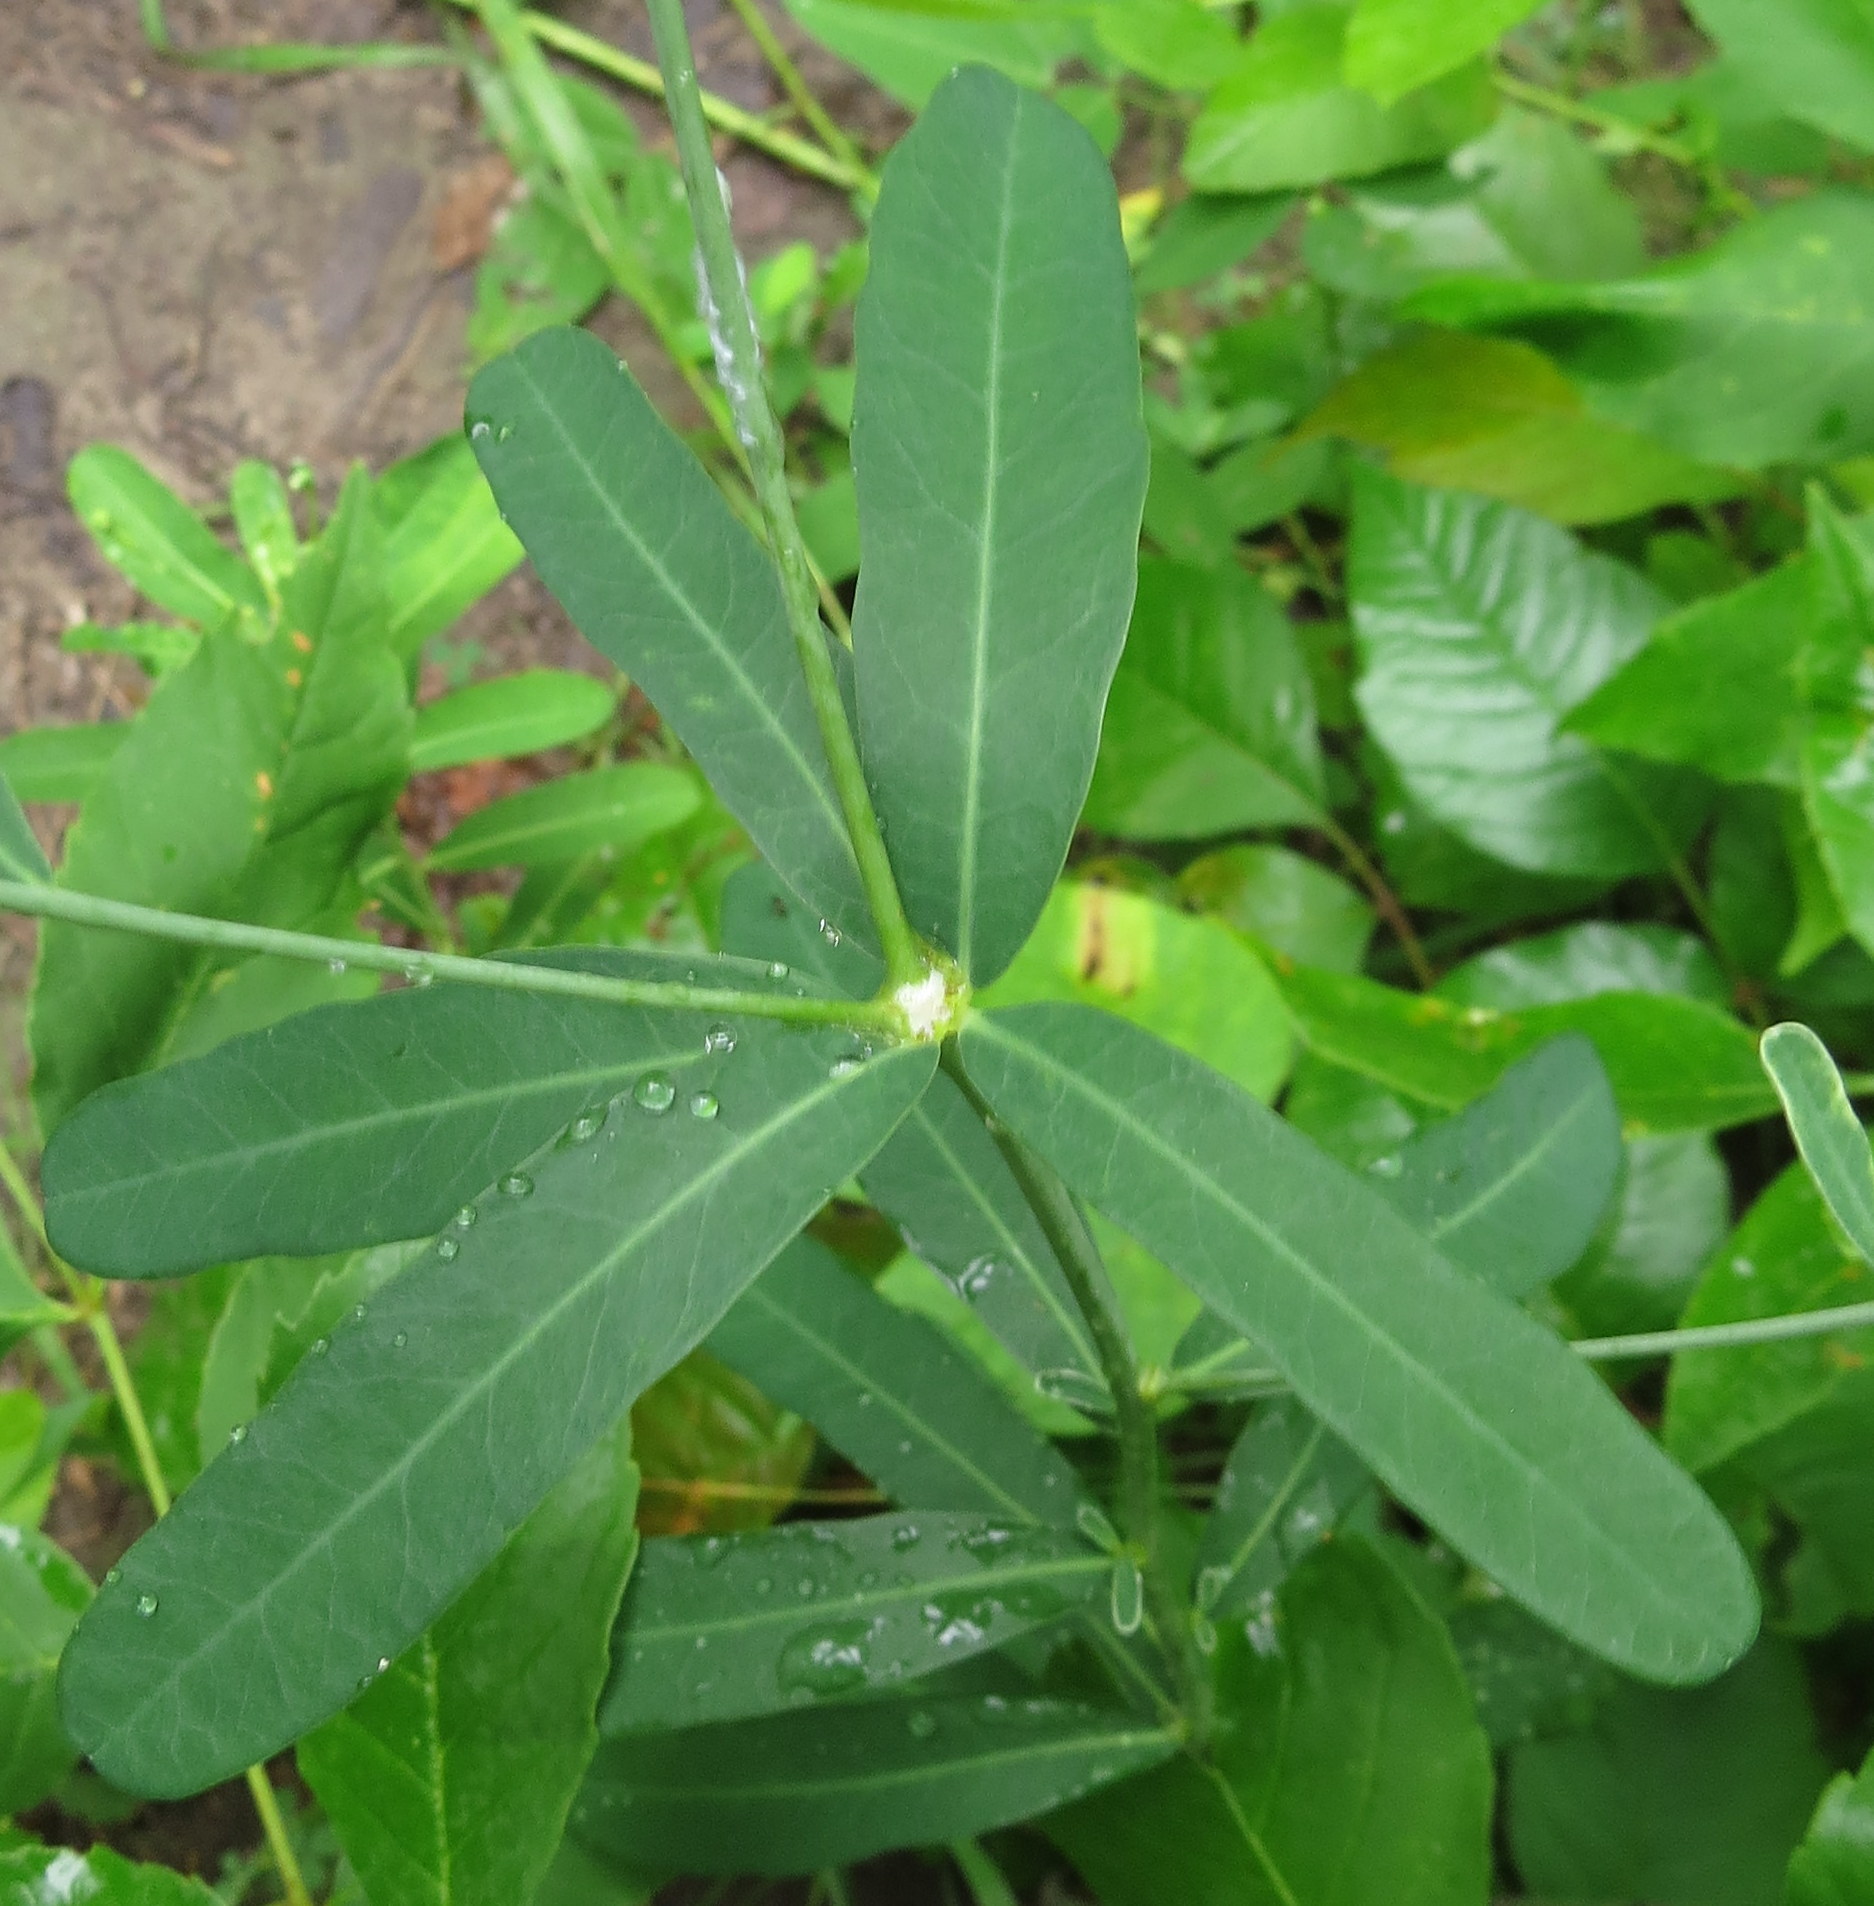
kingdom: Plantae
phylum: Tracheophyta
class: Magnoliopsida
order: Malpighiales
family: Euphorbiaceae
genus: Euphorbia
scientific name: Euphorbia corollata
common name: Flowering spurge
